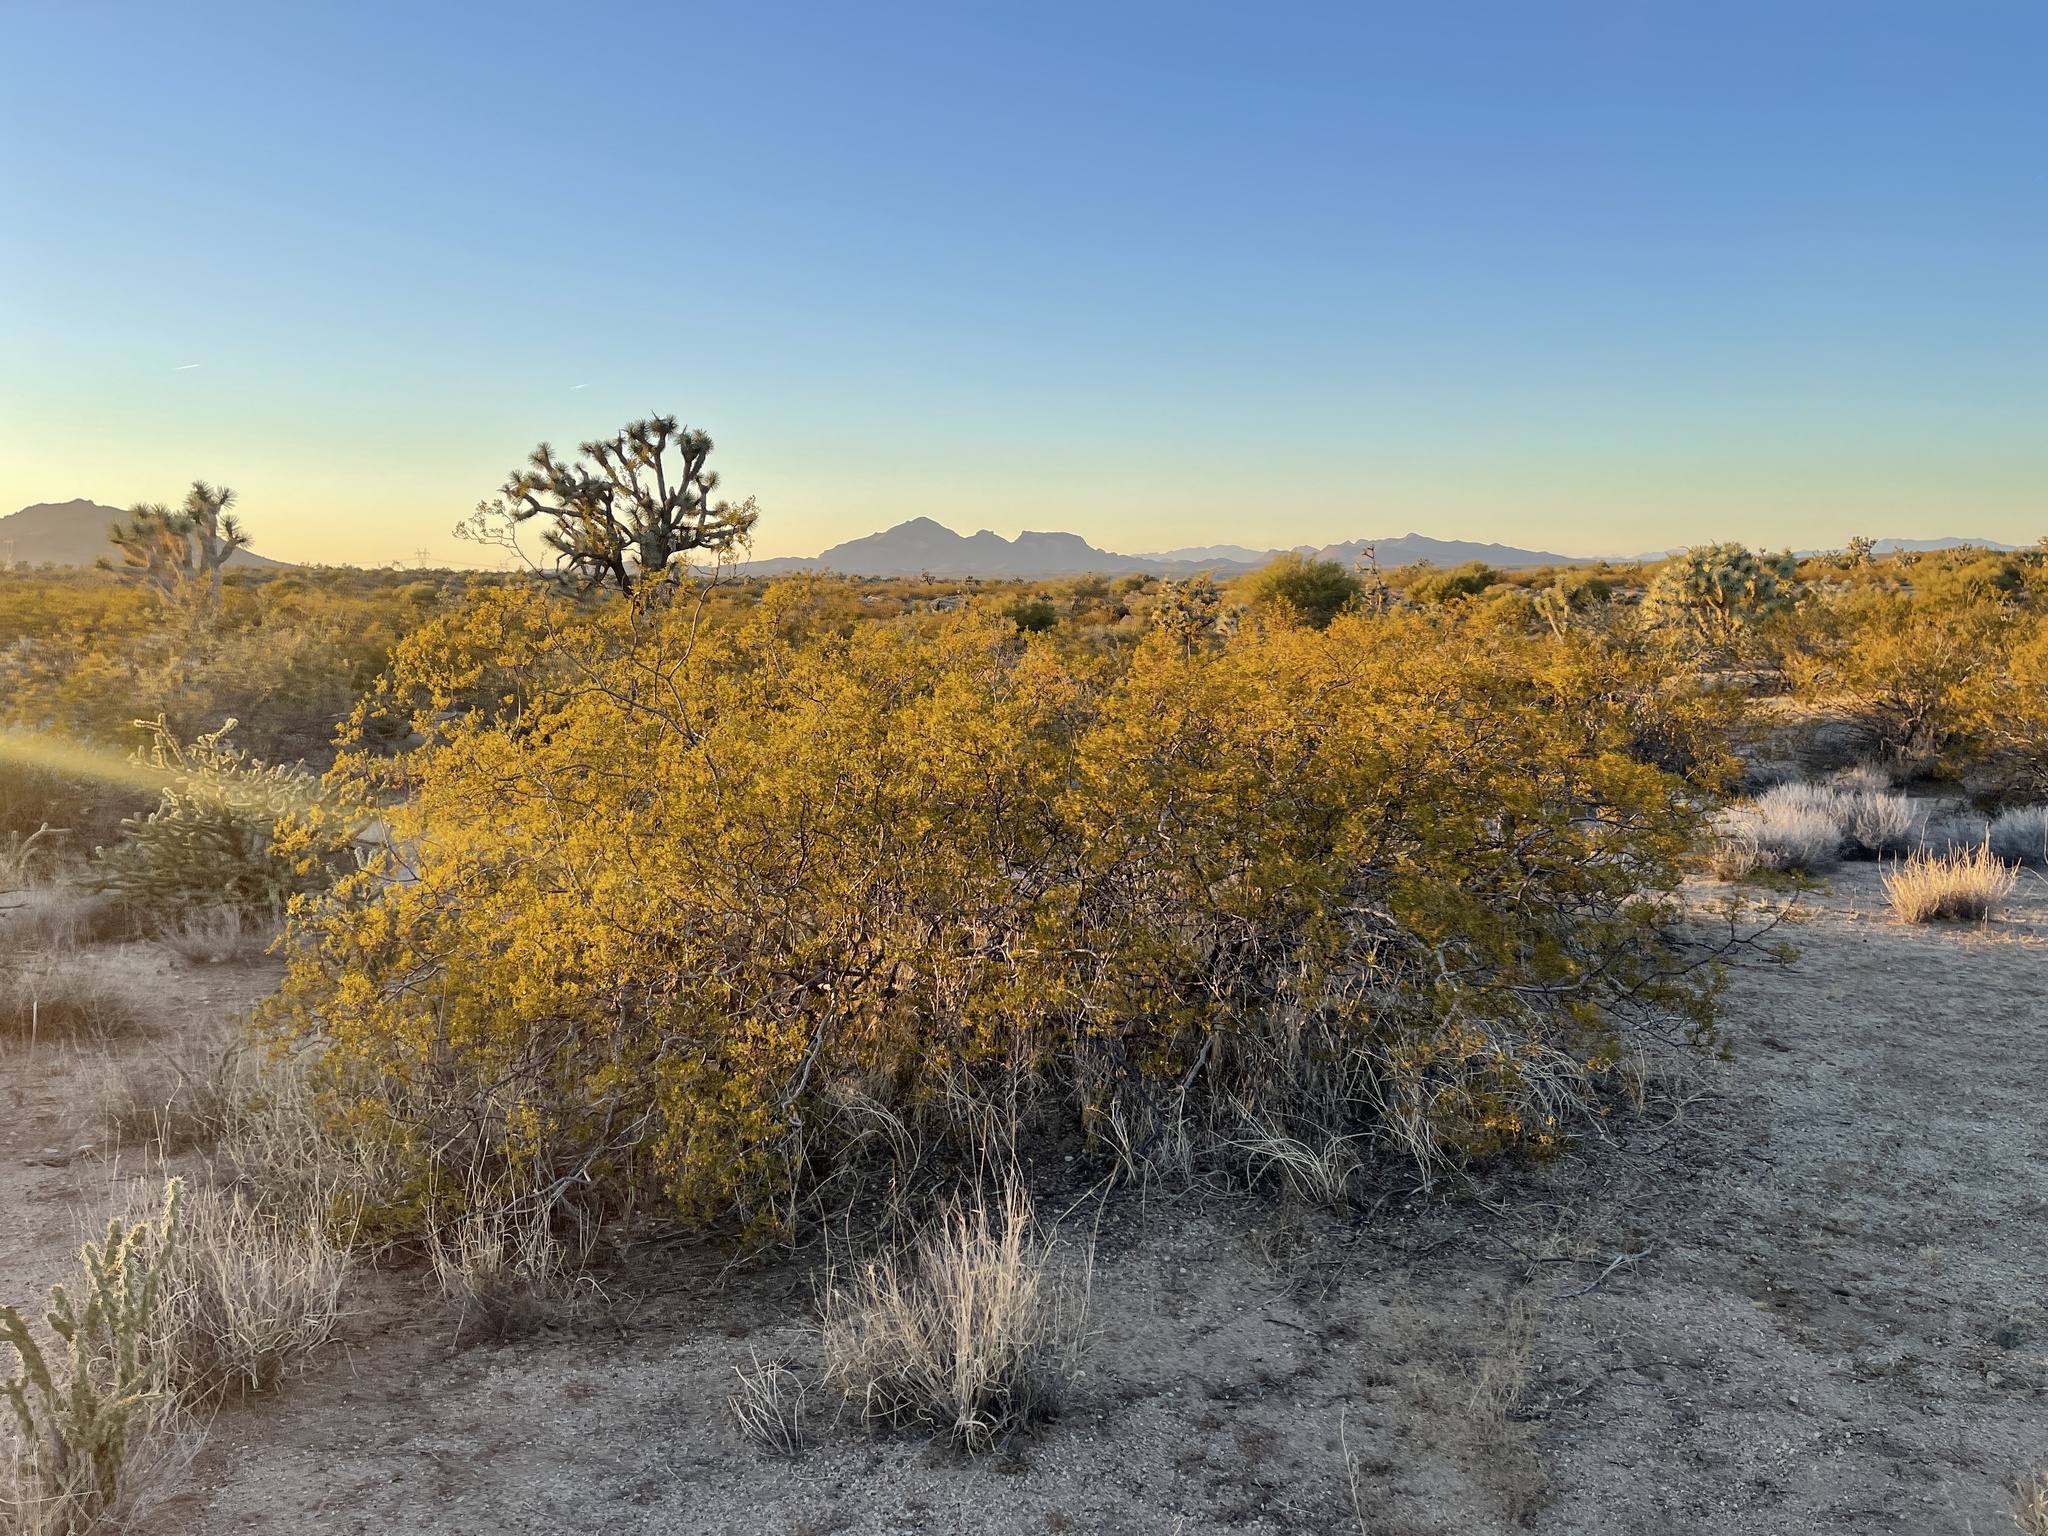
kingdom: Plantae
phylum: Tracheophyta
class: Magnoliopsida
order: Zygophyllales
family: Zygophyllaceae
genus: Larrea
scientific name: Larrea tridentata
